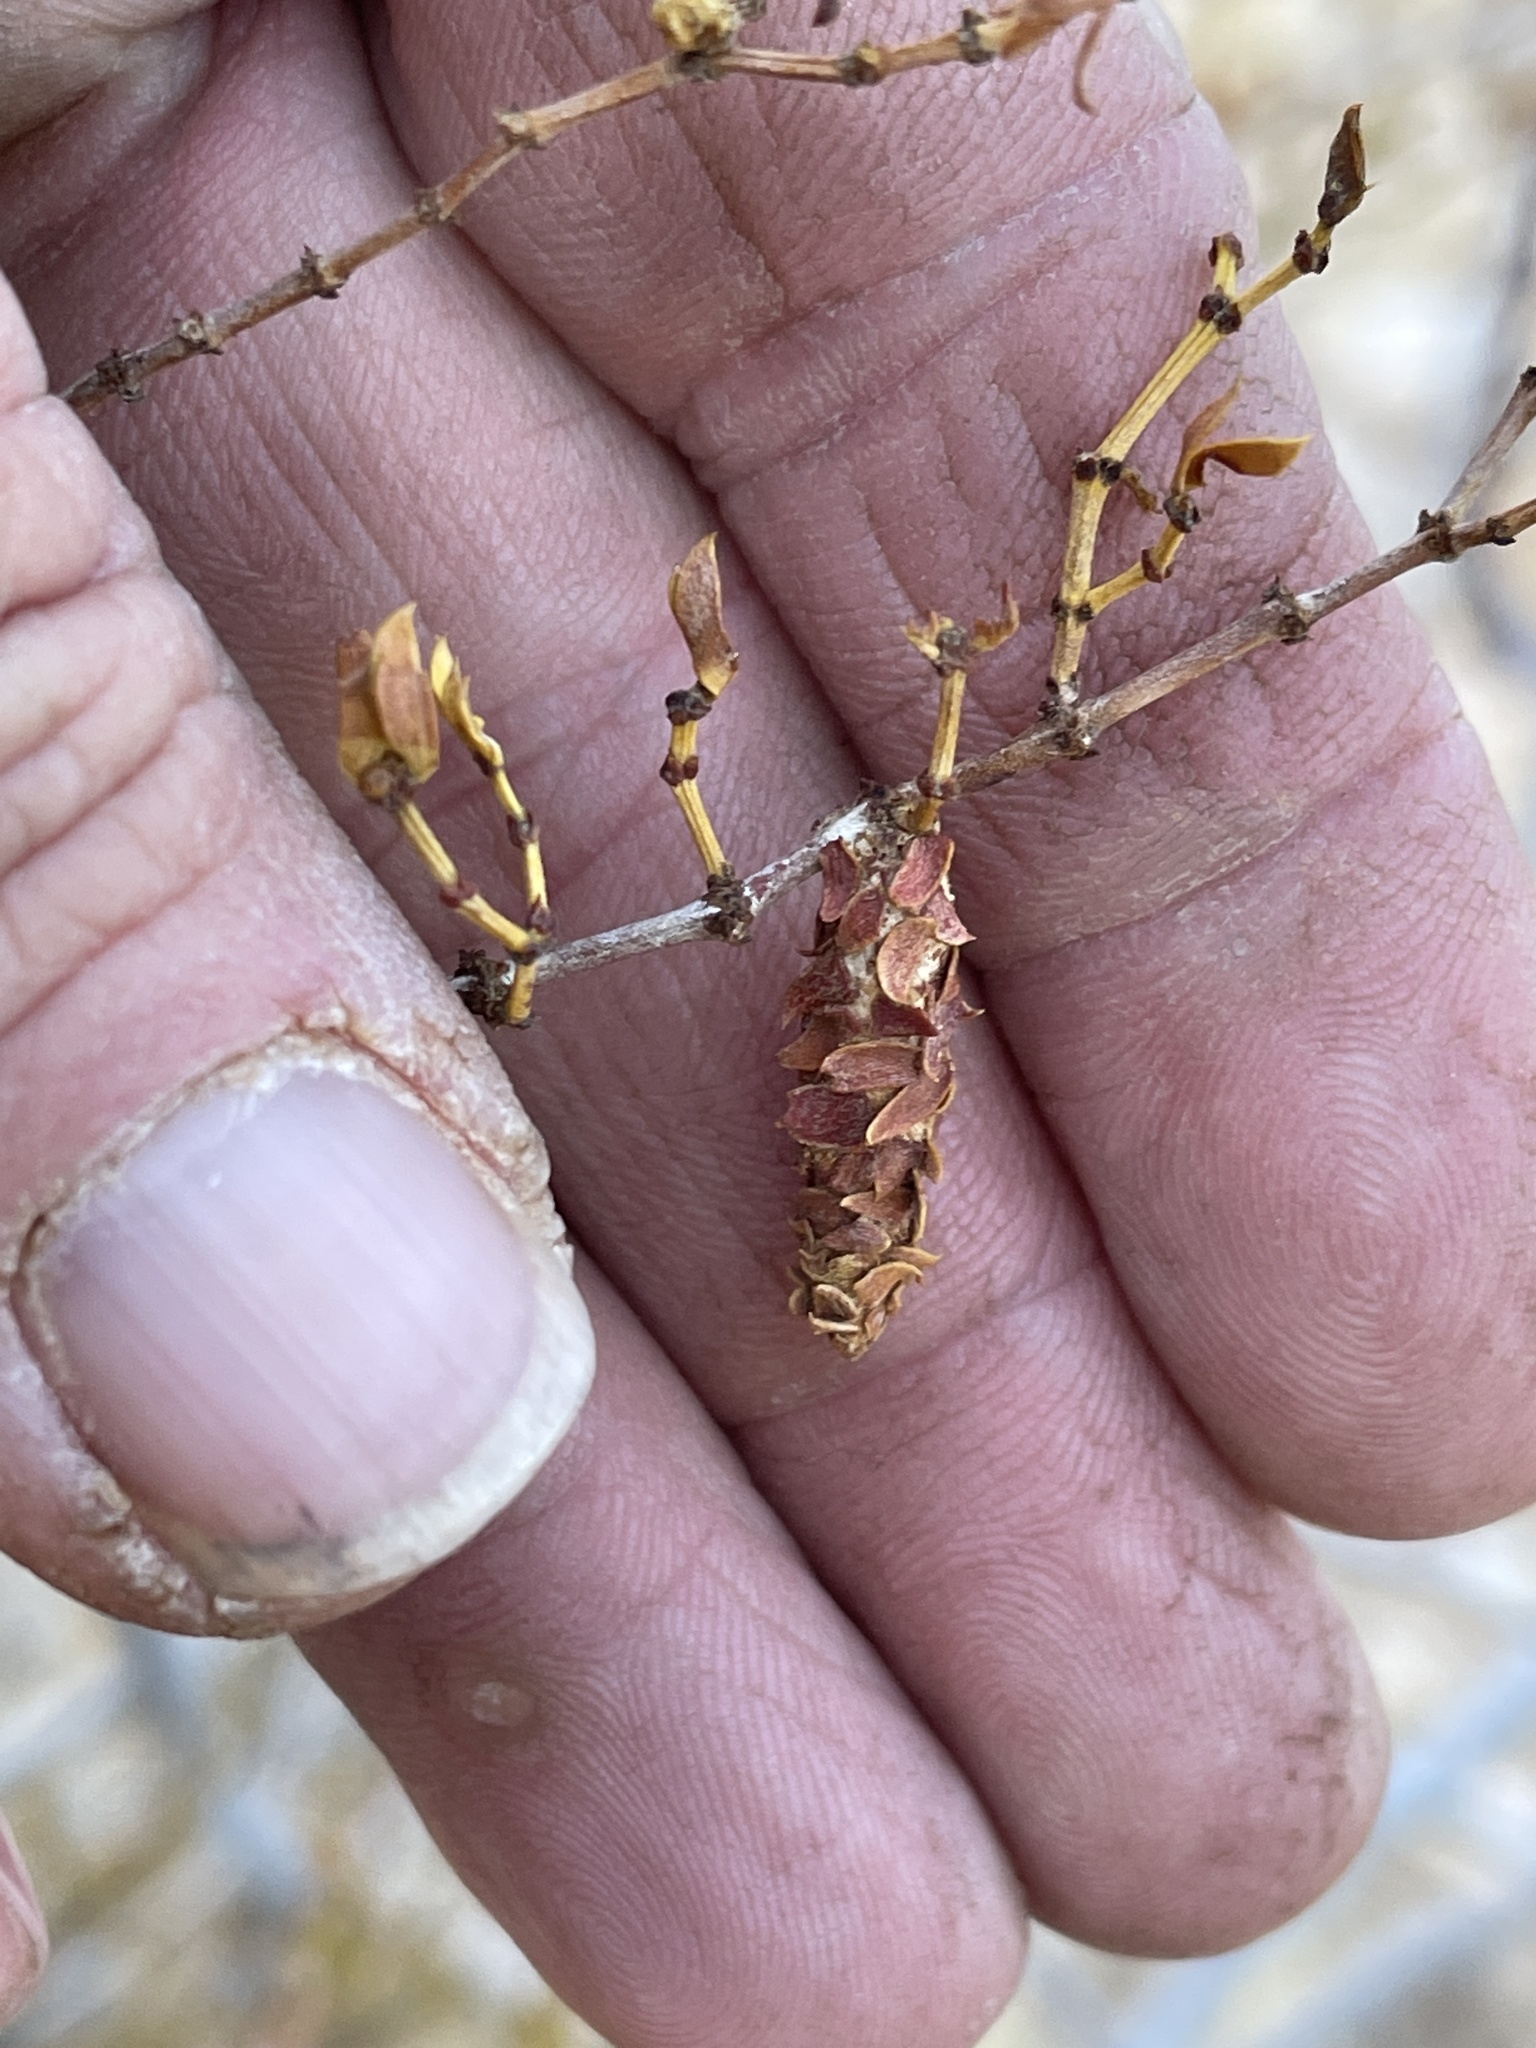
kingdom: Animalia
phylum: Arthropoda
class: Insecta
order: Lepidoptera
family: Psychidae
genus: Thyridopteryx
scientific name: Thyridopteryx meadii
